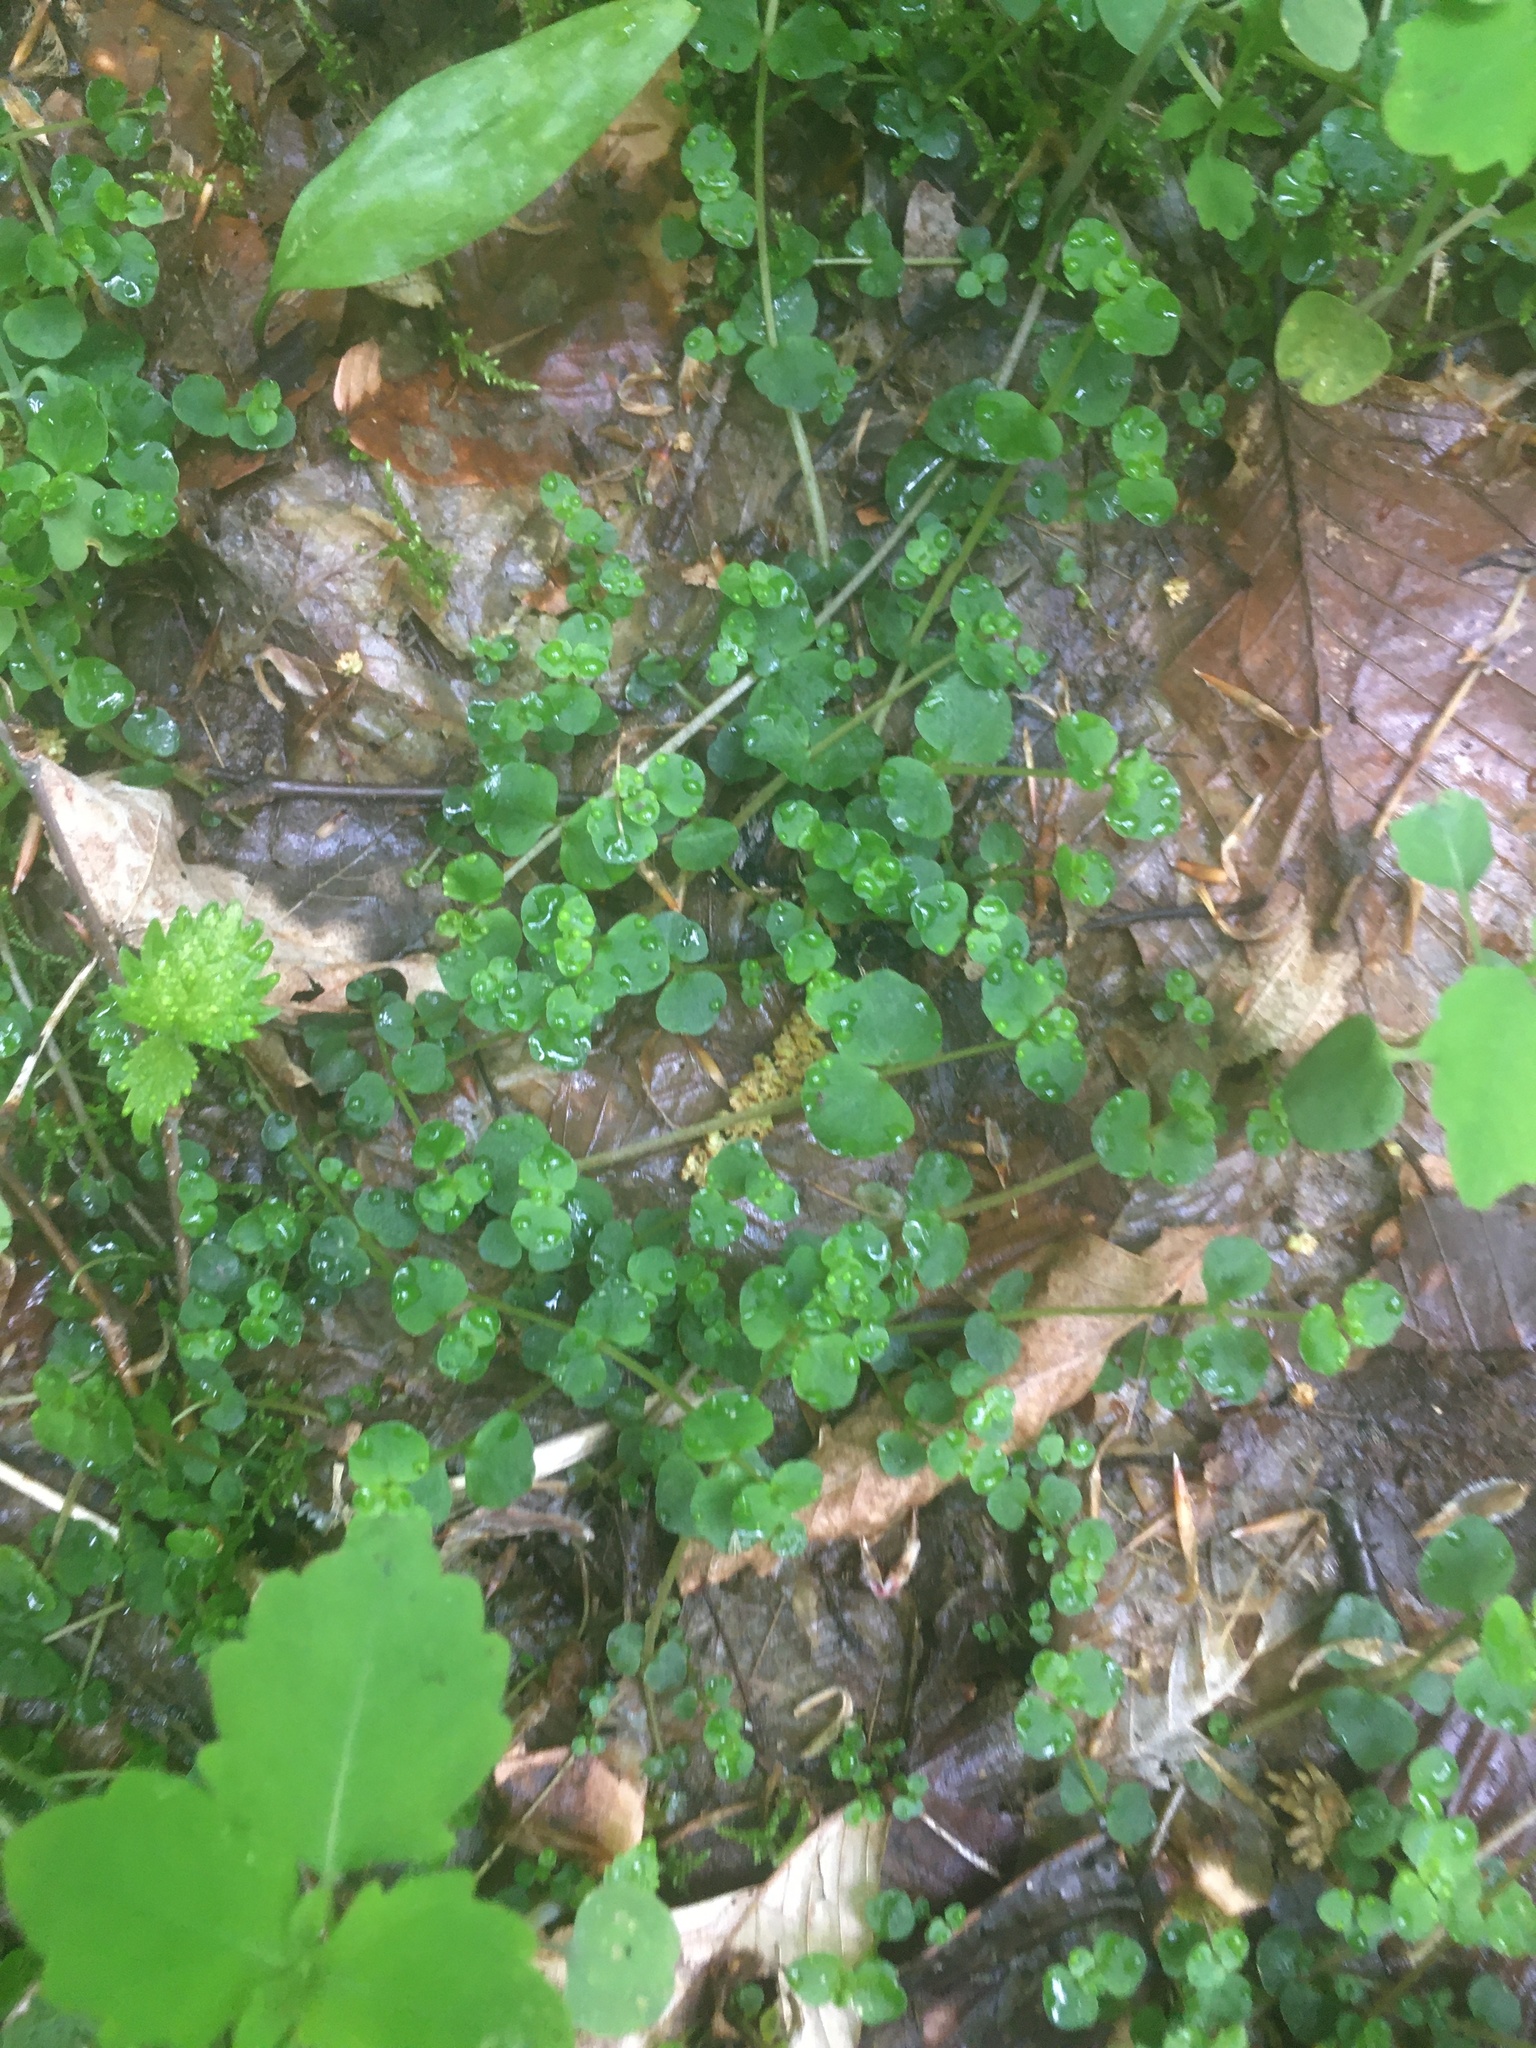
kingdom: Plantae
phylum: Tracheophyta
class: Magnoliopsida
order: Saxifragales
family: Saxifragaceae
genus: Chrysosplenium
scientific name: Chrysosplenium americanum
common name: American golden-saxifrage
